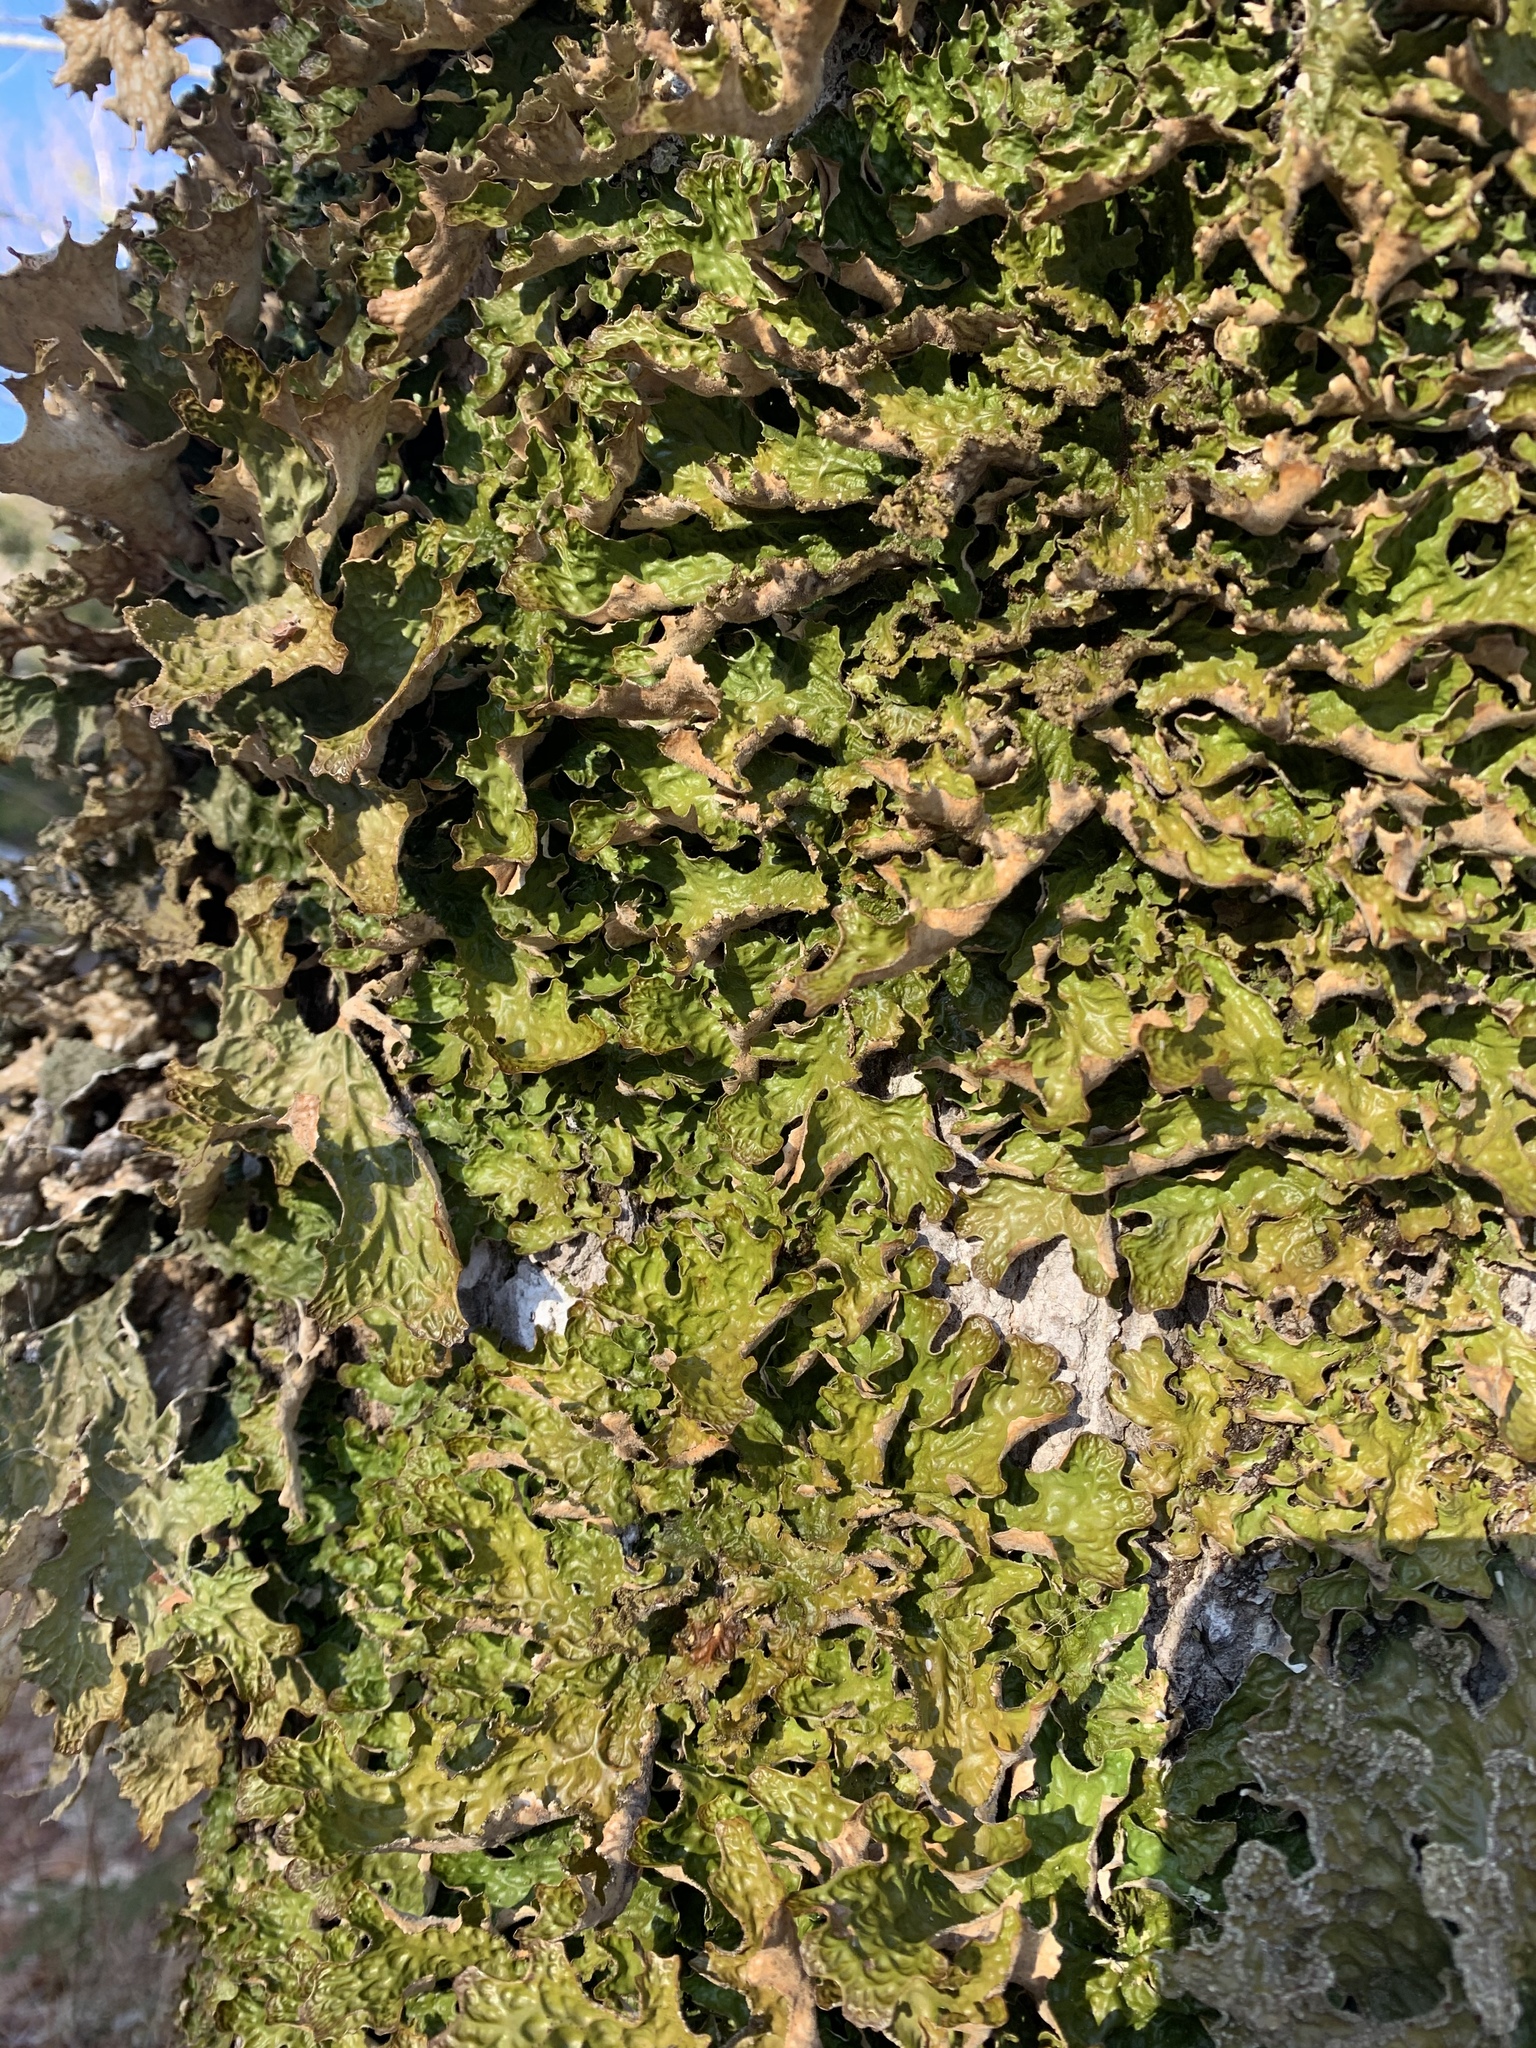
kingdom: Fungi
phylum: Ascomycota
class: Lecanoromycetes
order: Peltigerales
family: Lobariaceae
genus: Lobaria
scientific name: Lobaria pulmonaria
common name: Lungwort
